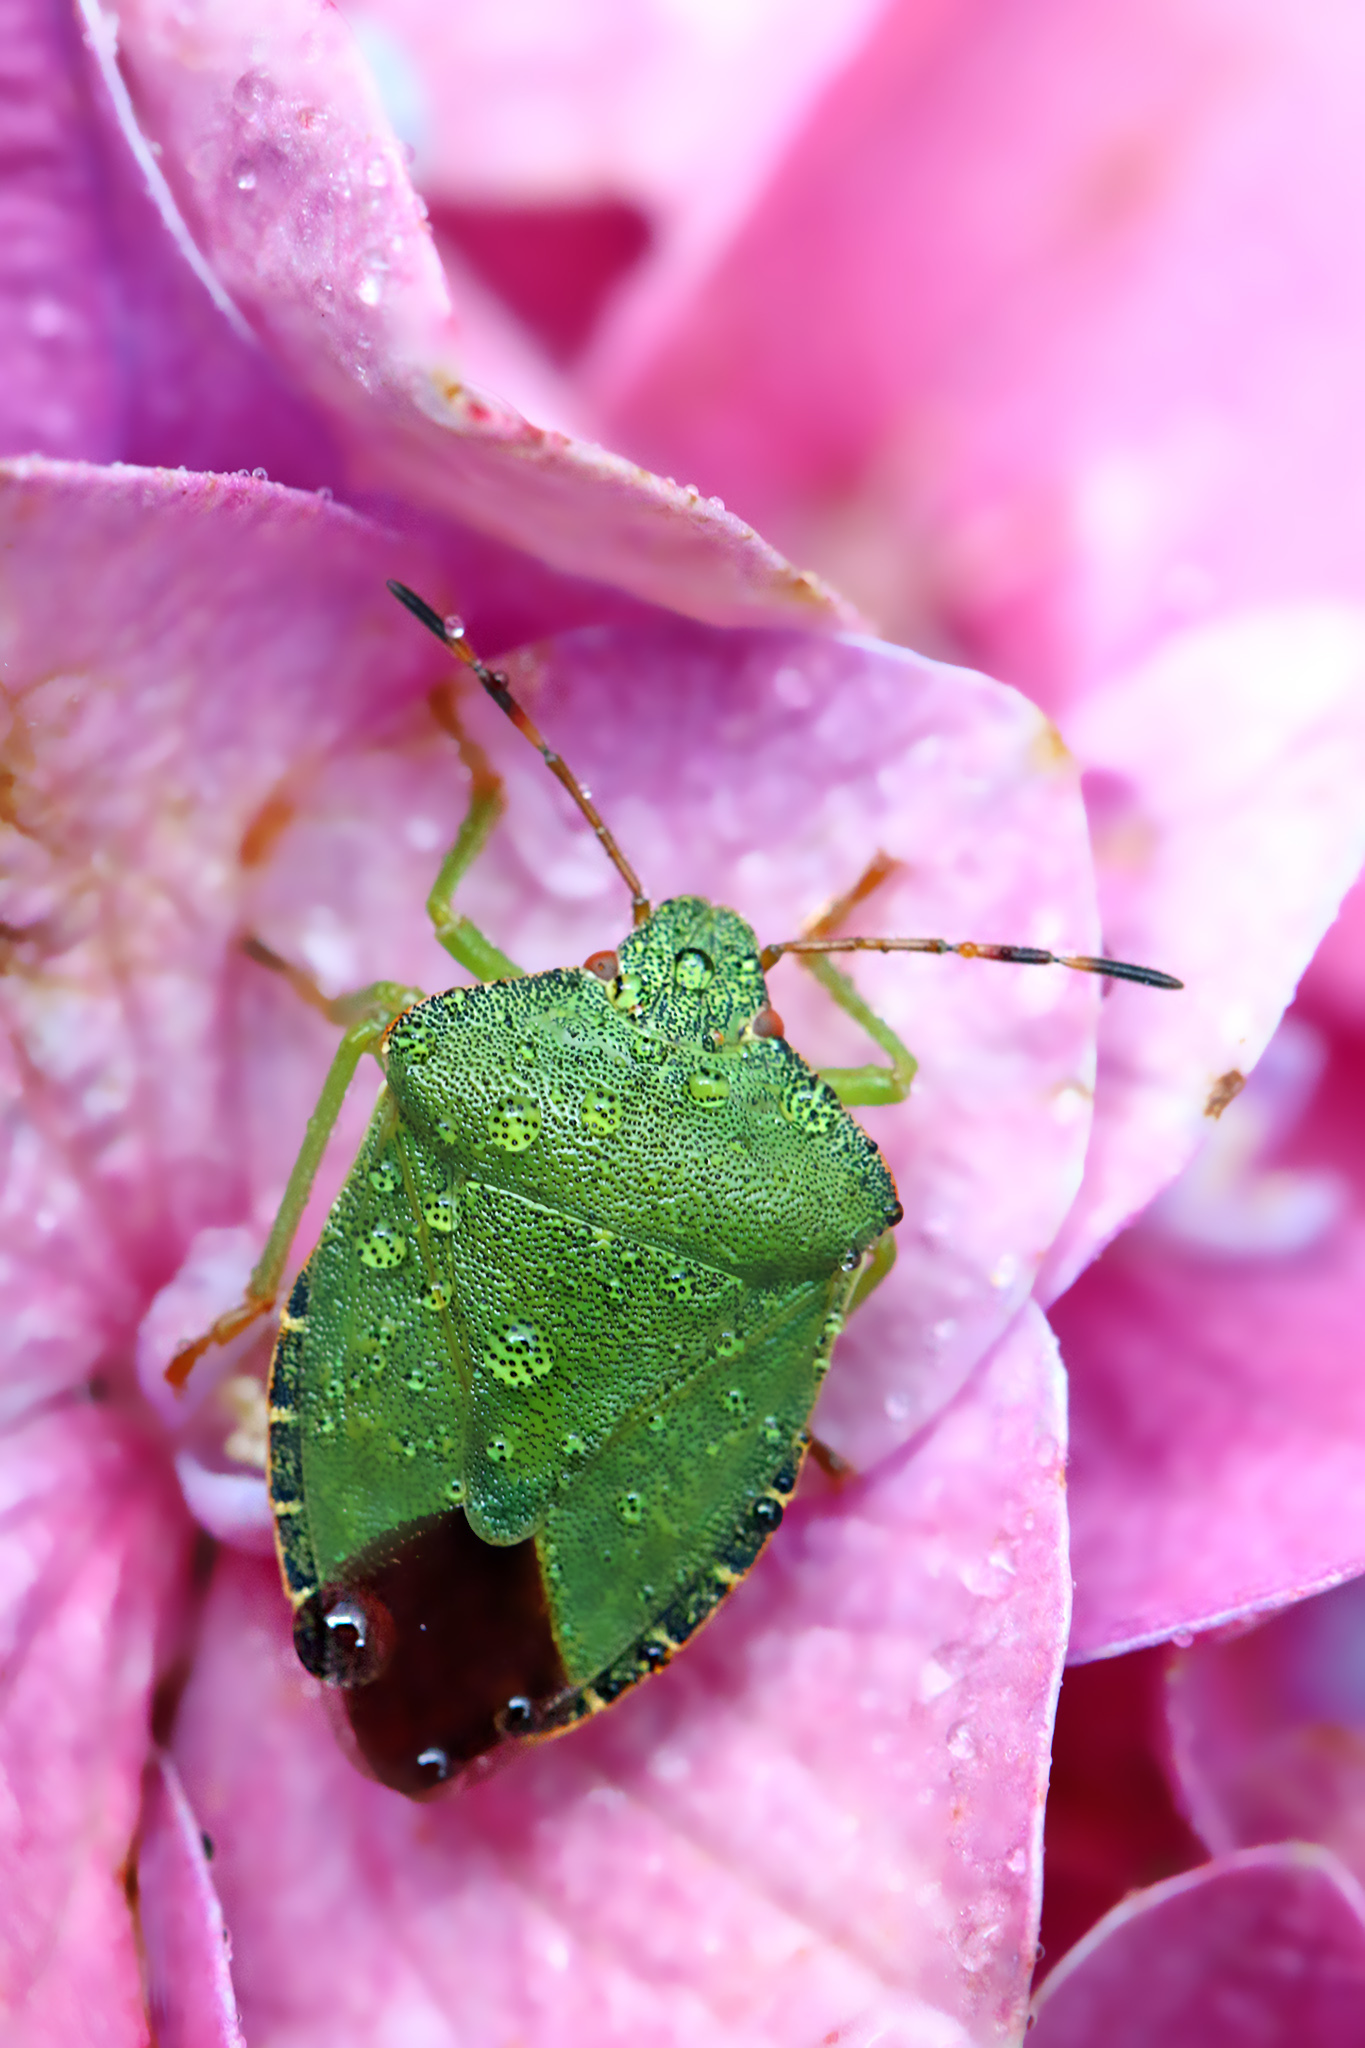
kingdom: Animalia
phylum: Arthropoda
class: Insecta
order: Hemiptera
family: Pentatomidae
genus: Palomena
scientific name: Palomena prasina
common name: Green shieldbug
